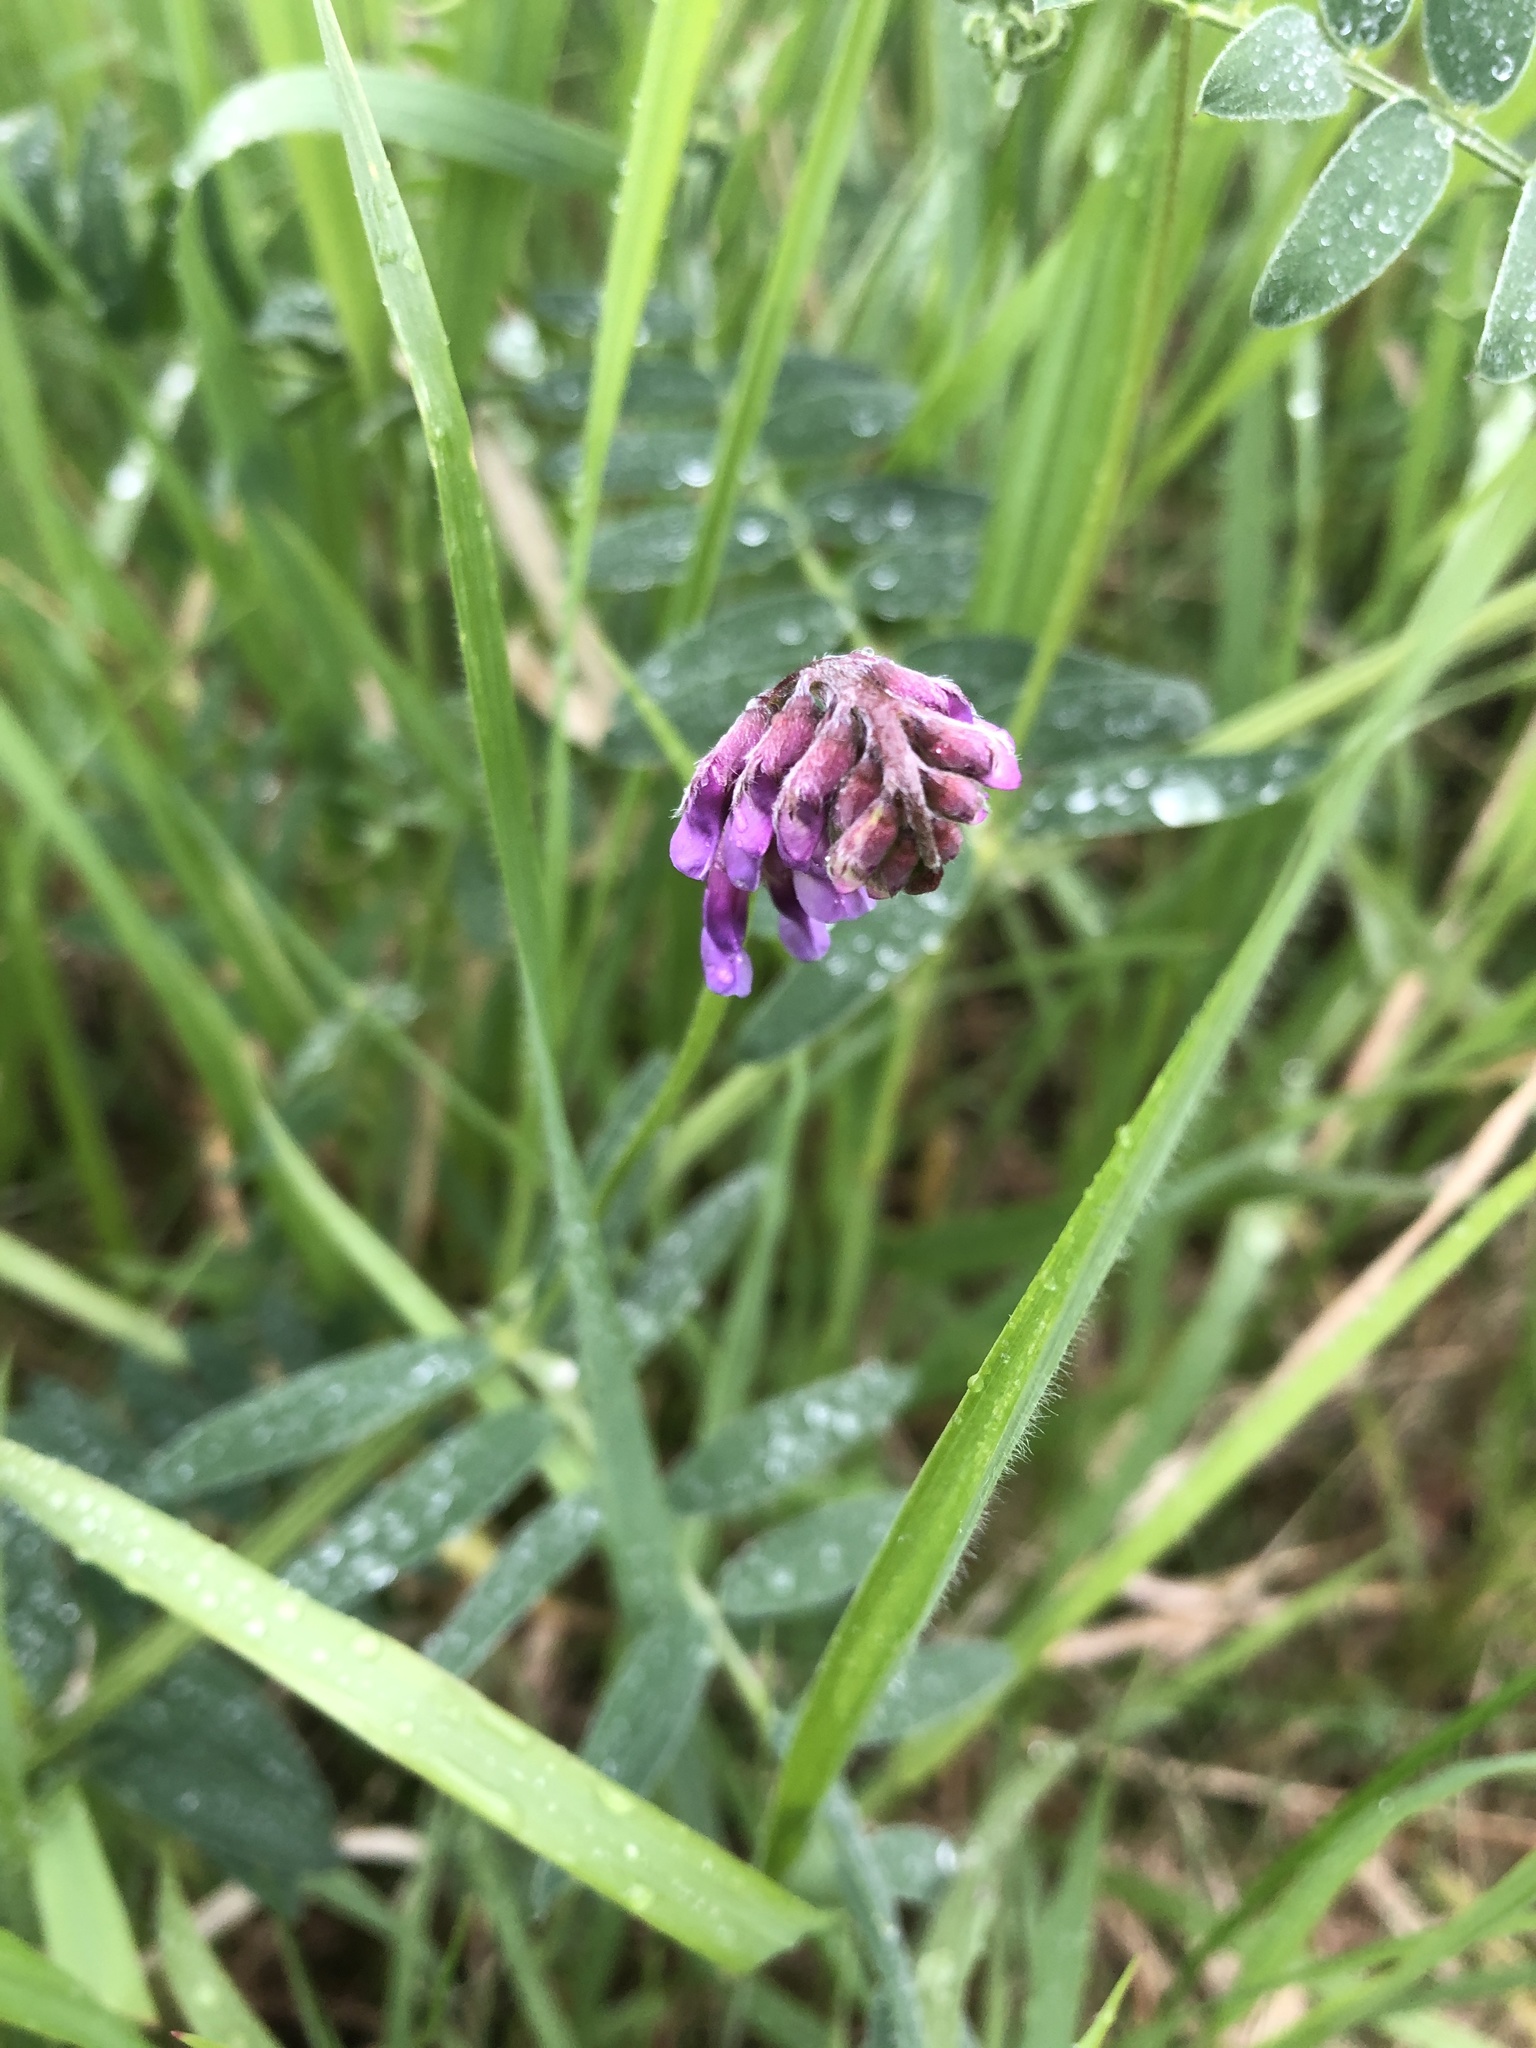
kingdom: Plantae
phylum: Tracheophyta
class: Magnoliopsida
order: Fabales
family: Fabaceae
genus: Vicia
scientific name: Vicia cracca
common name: Bird vetch
